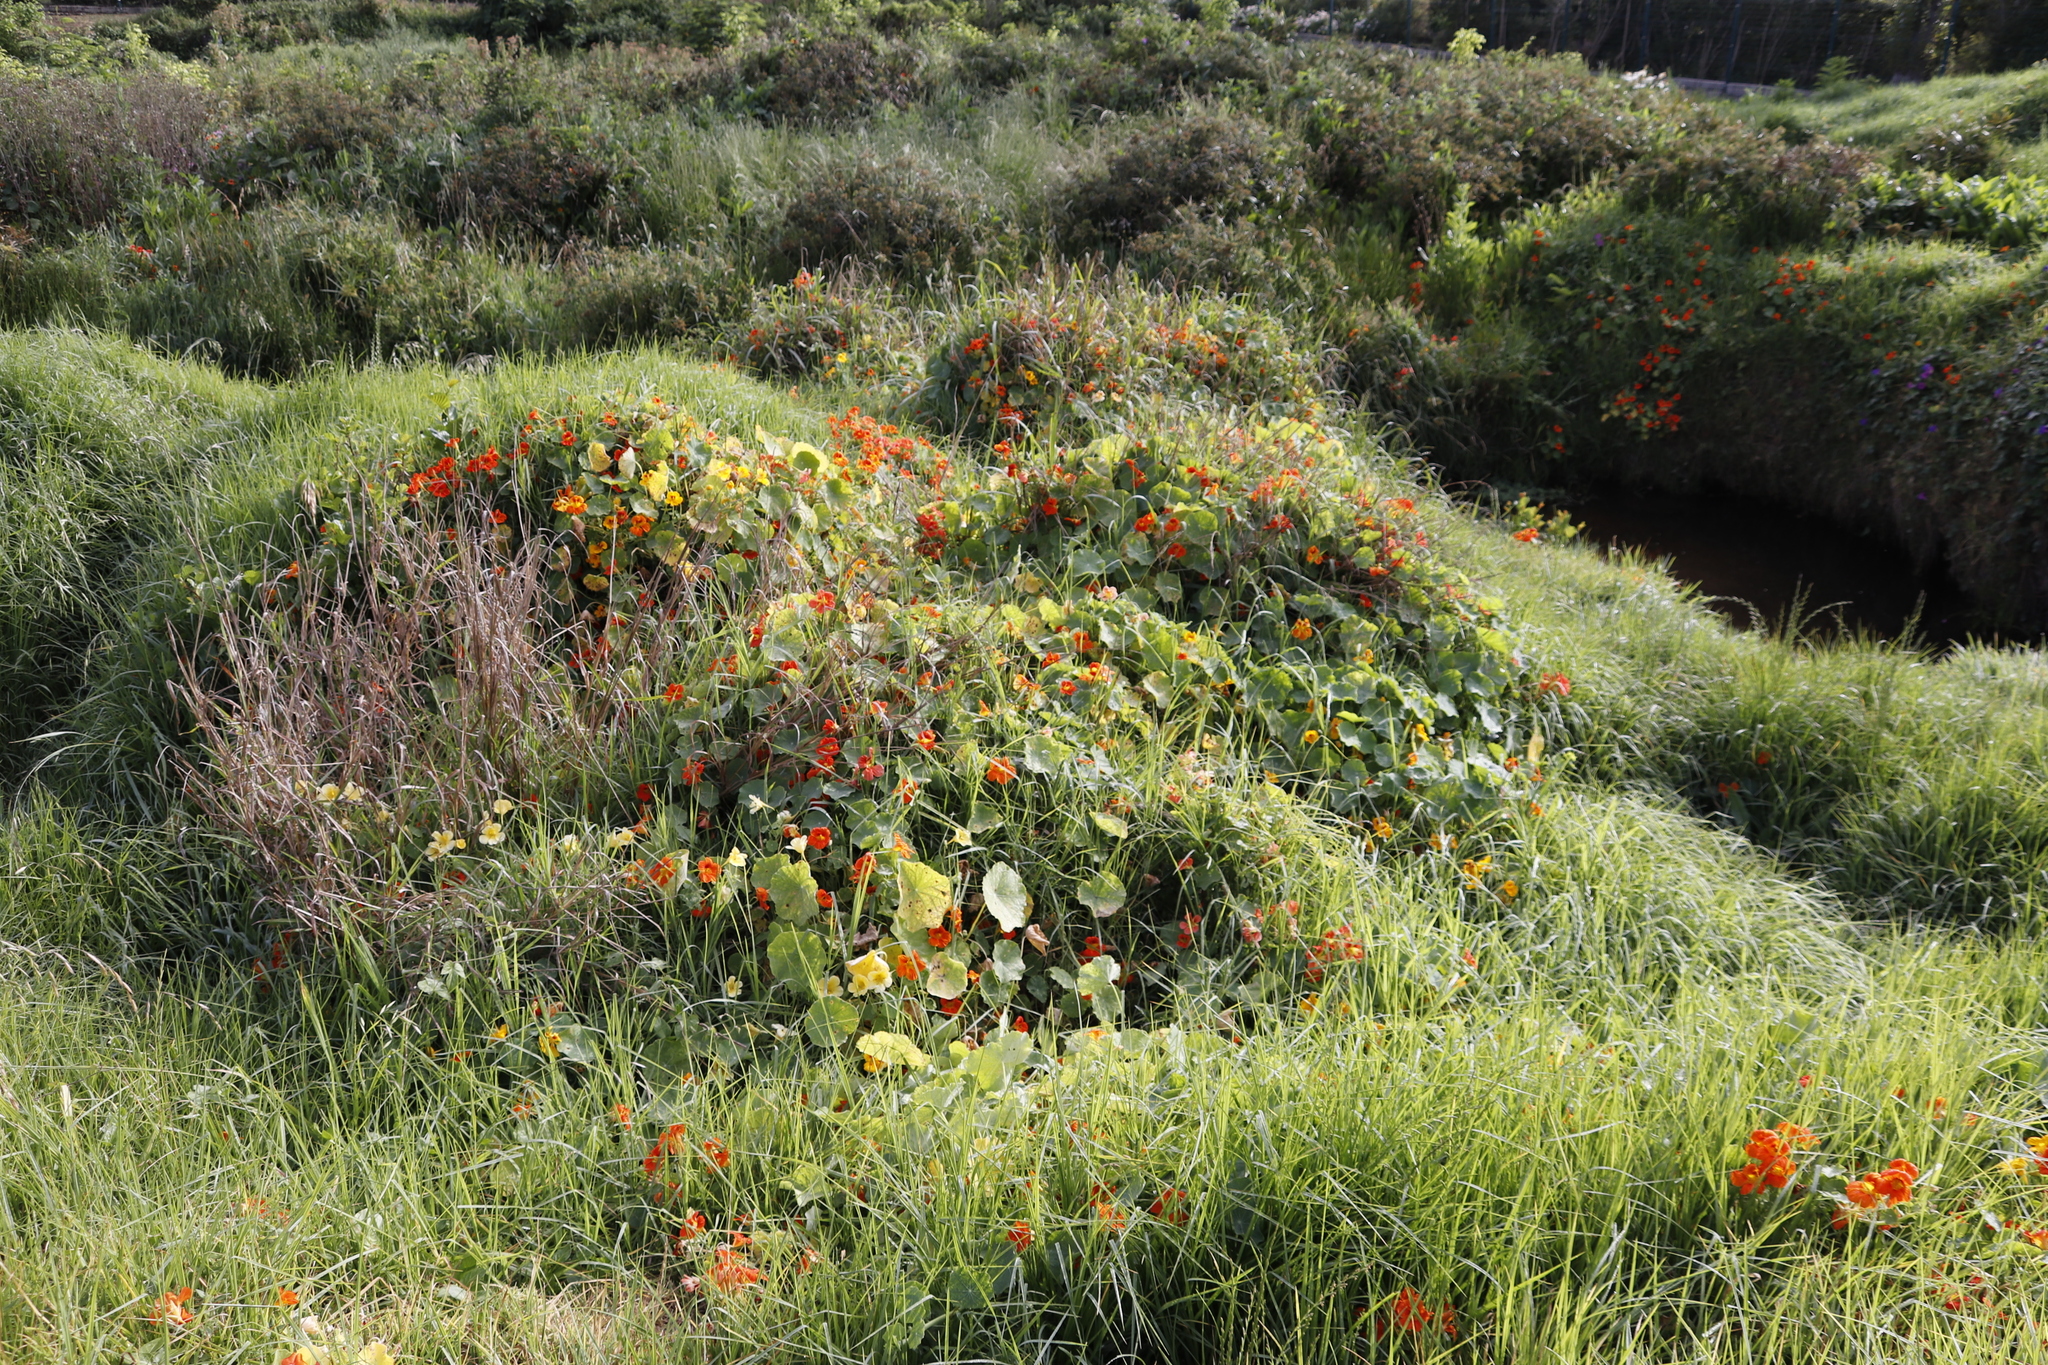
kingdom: Plantae
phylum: Tracheophyta
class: Magnoliopsida
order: Brassicales
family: Tropaeolaceae
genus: Tropaeolum
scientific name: Tropaeolum majus
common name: Nasturtium
